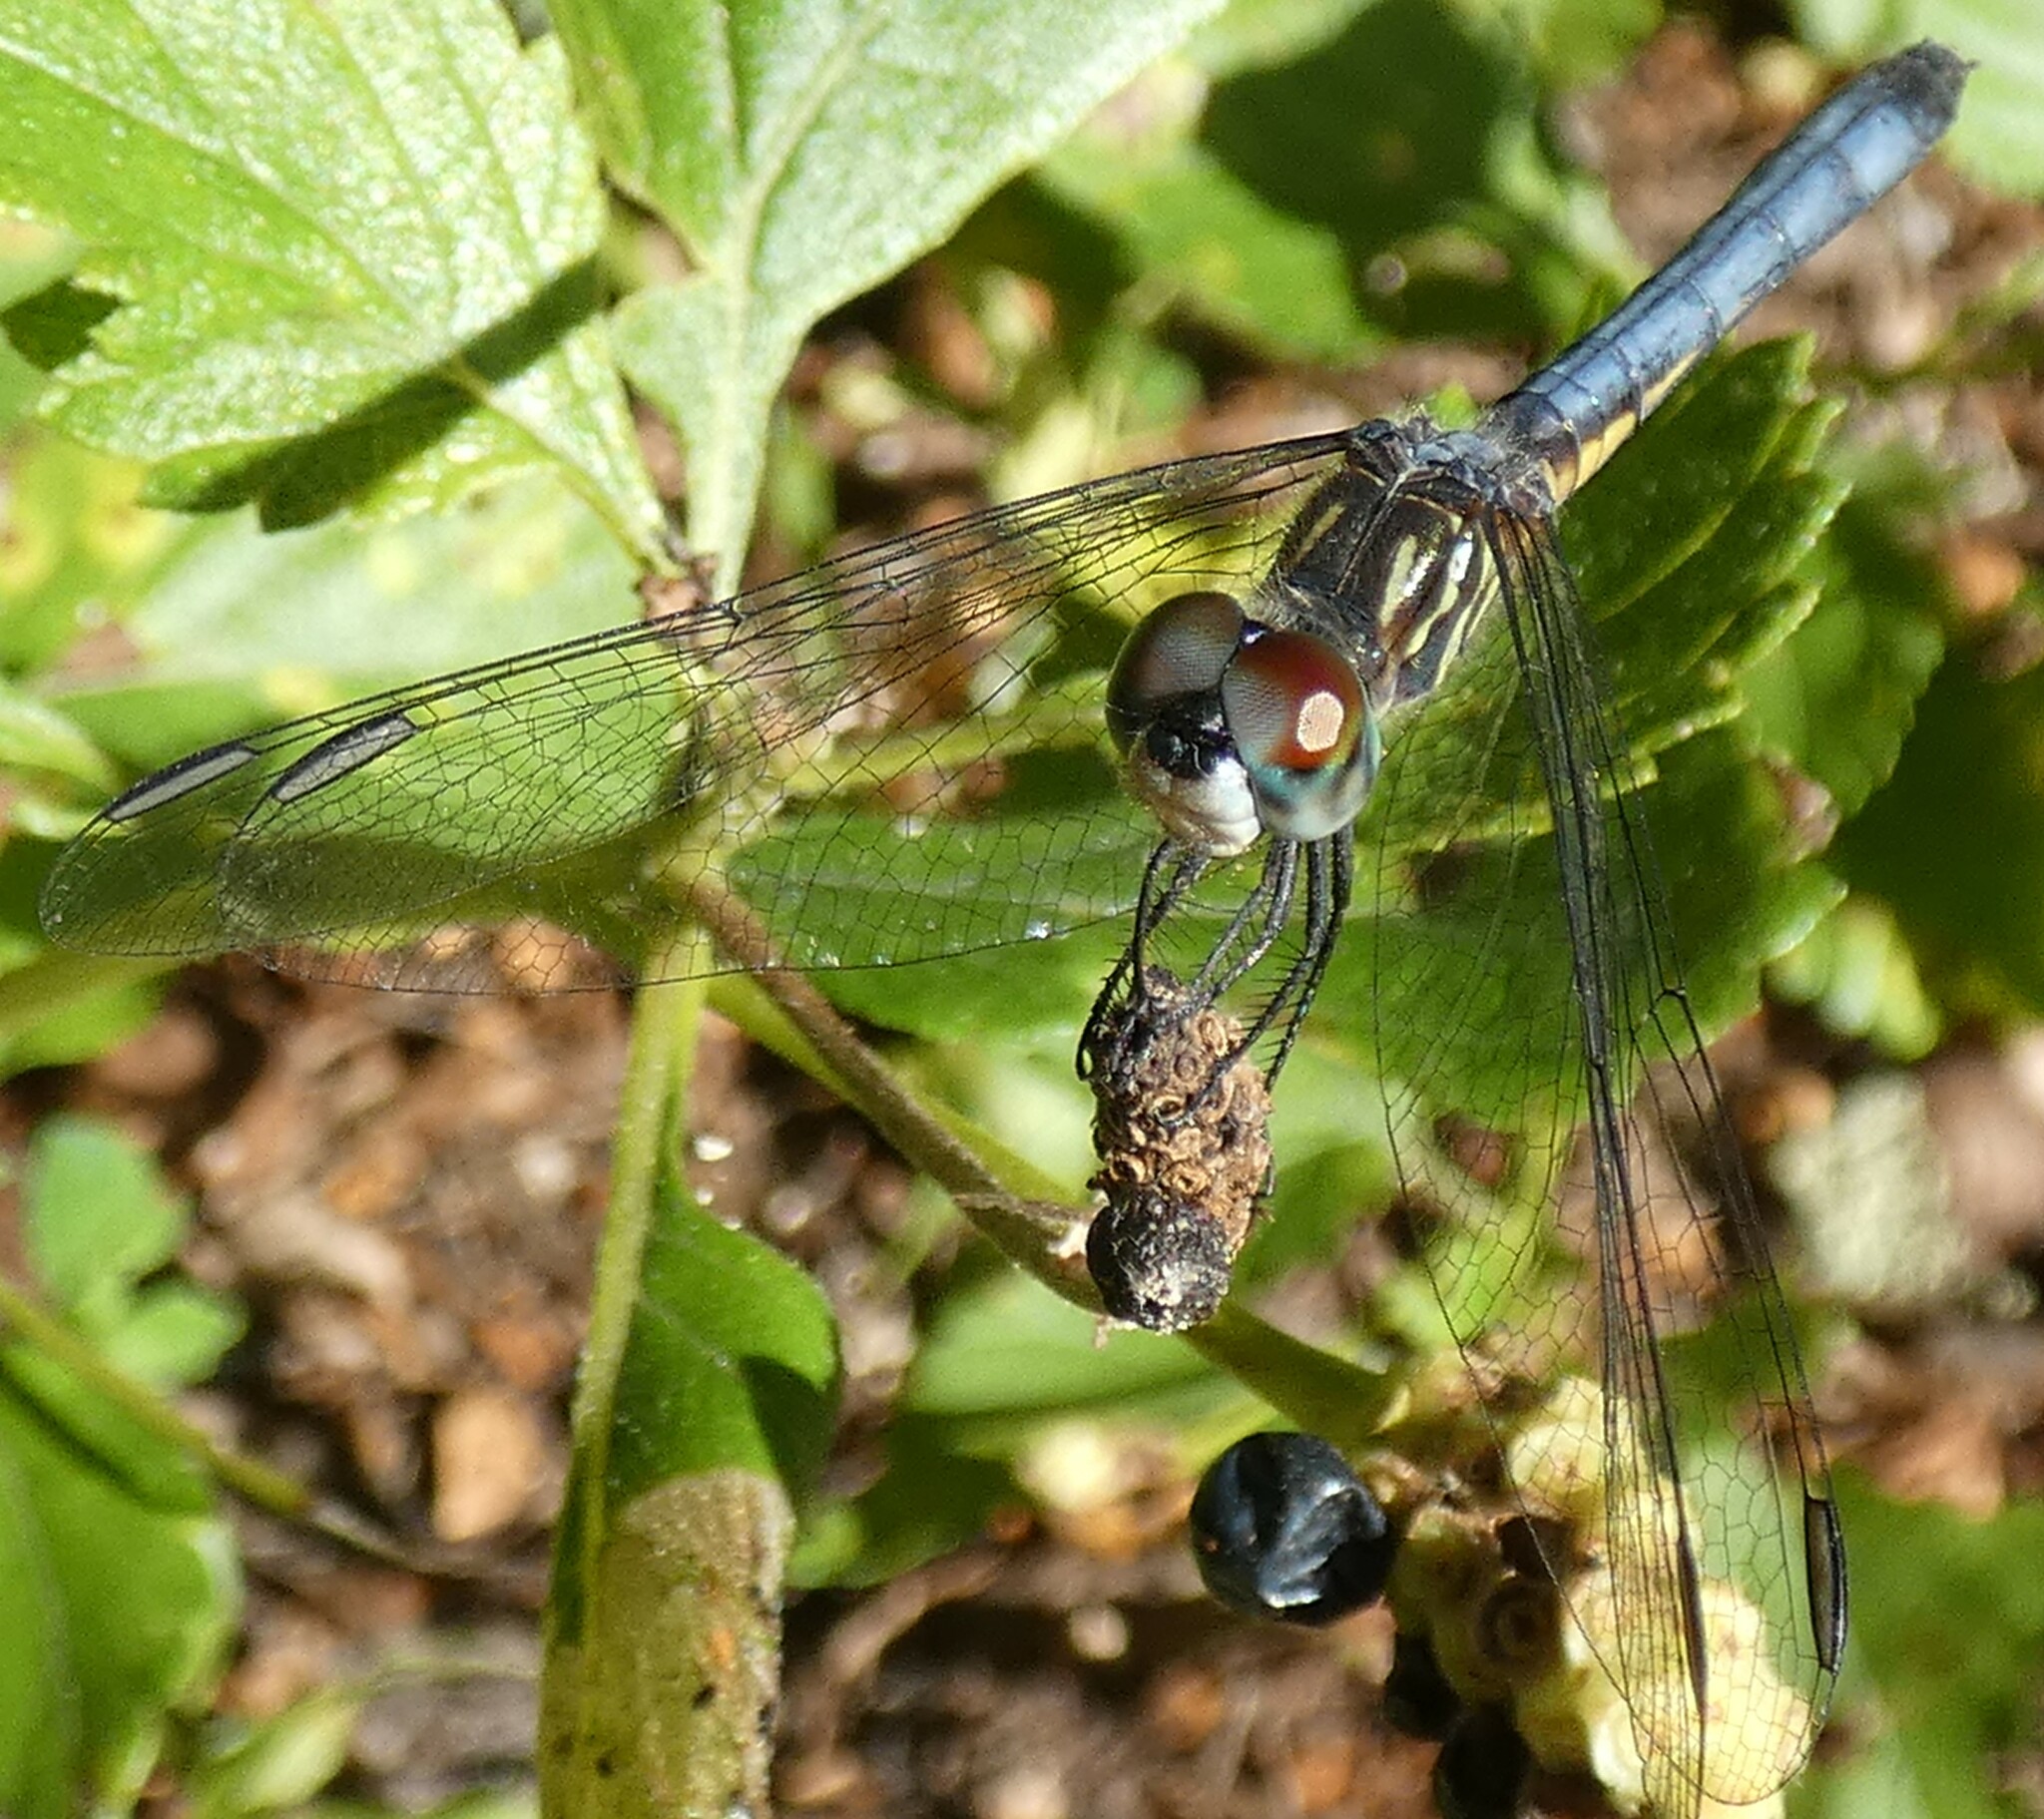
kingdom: Animalia
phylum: Arthropoda
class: Insecta
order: Odonata
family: Libellulidae
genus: Pachydiplax
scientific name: Pachydiplax longipennis
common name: Blue dasher
